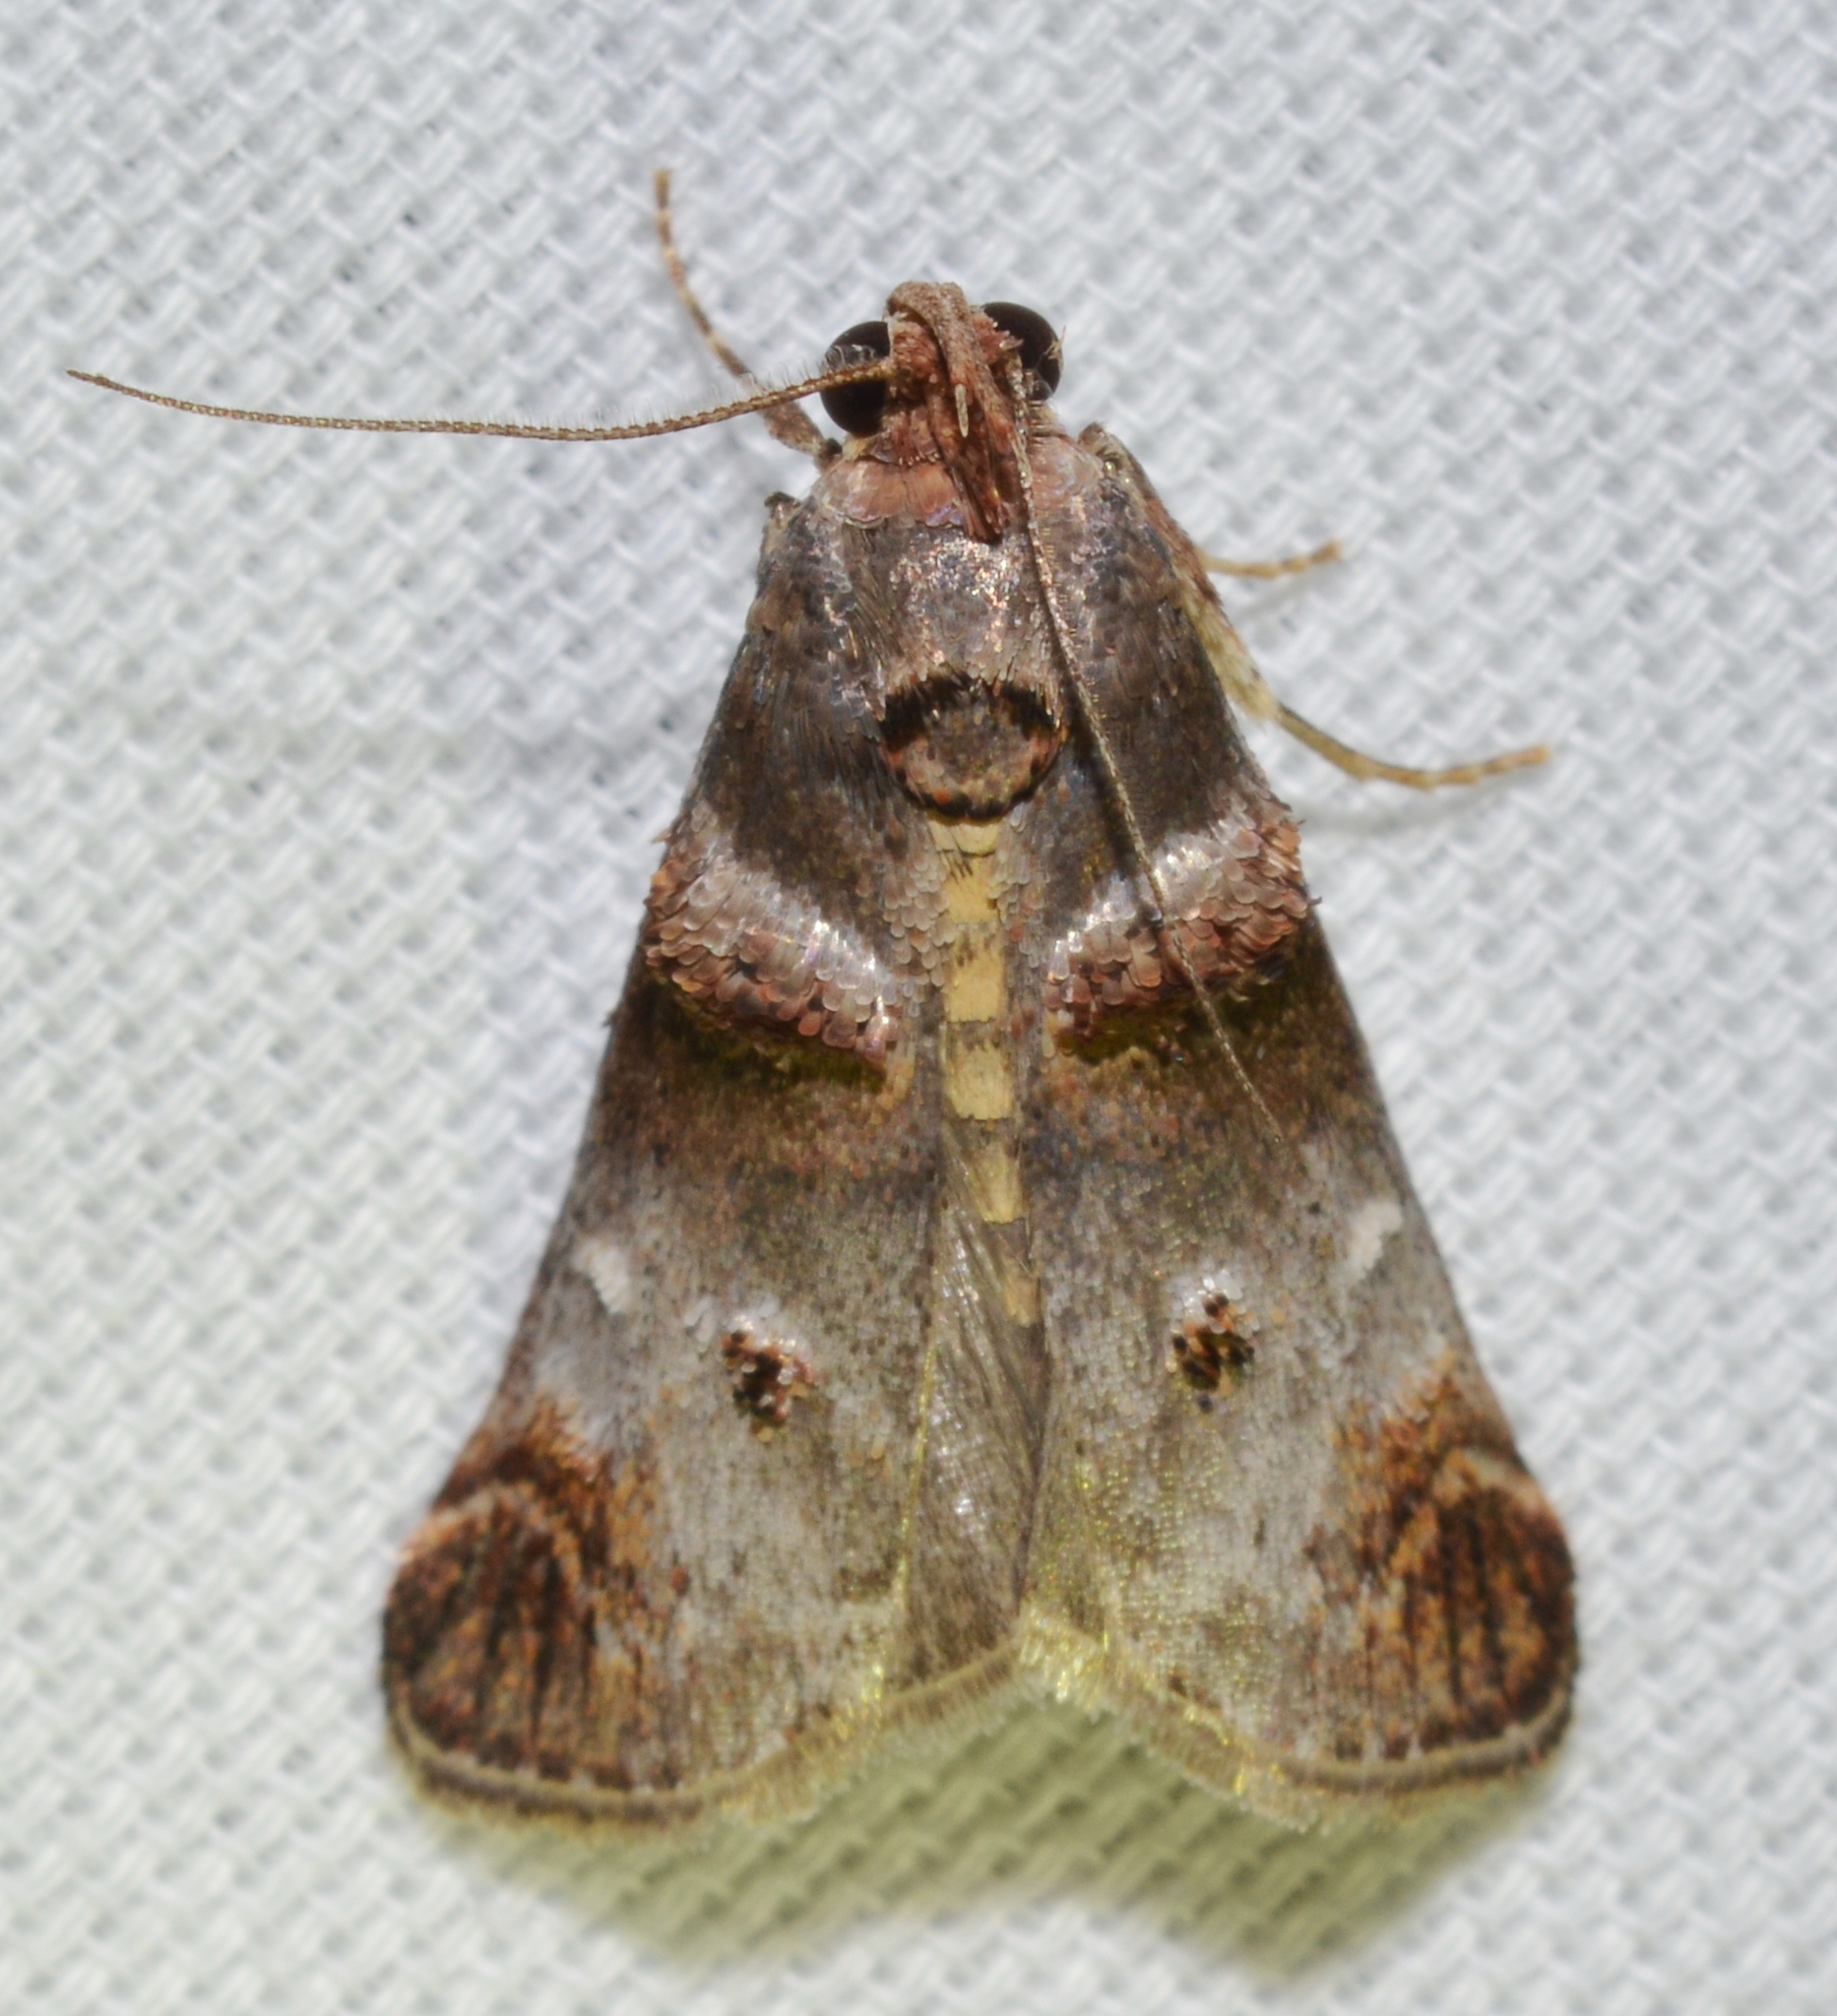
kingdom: Animalia
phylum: Arthropoda
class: Insecta
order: Lepidoptera
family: Pyralidae
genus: Oneida
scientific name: Oneida lunulalis
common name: Orange-tufted oneida moth
